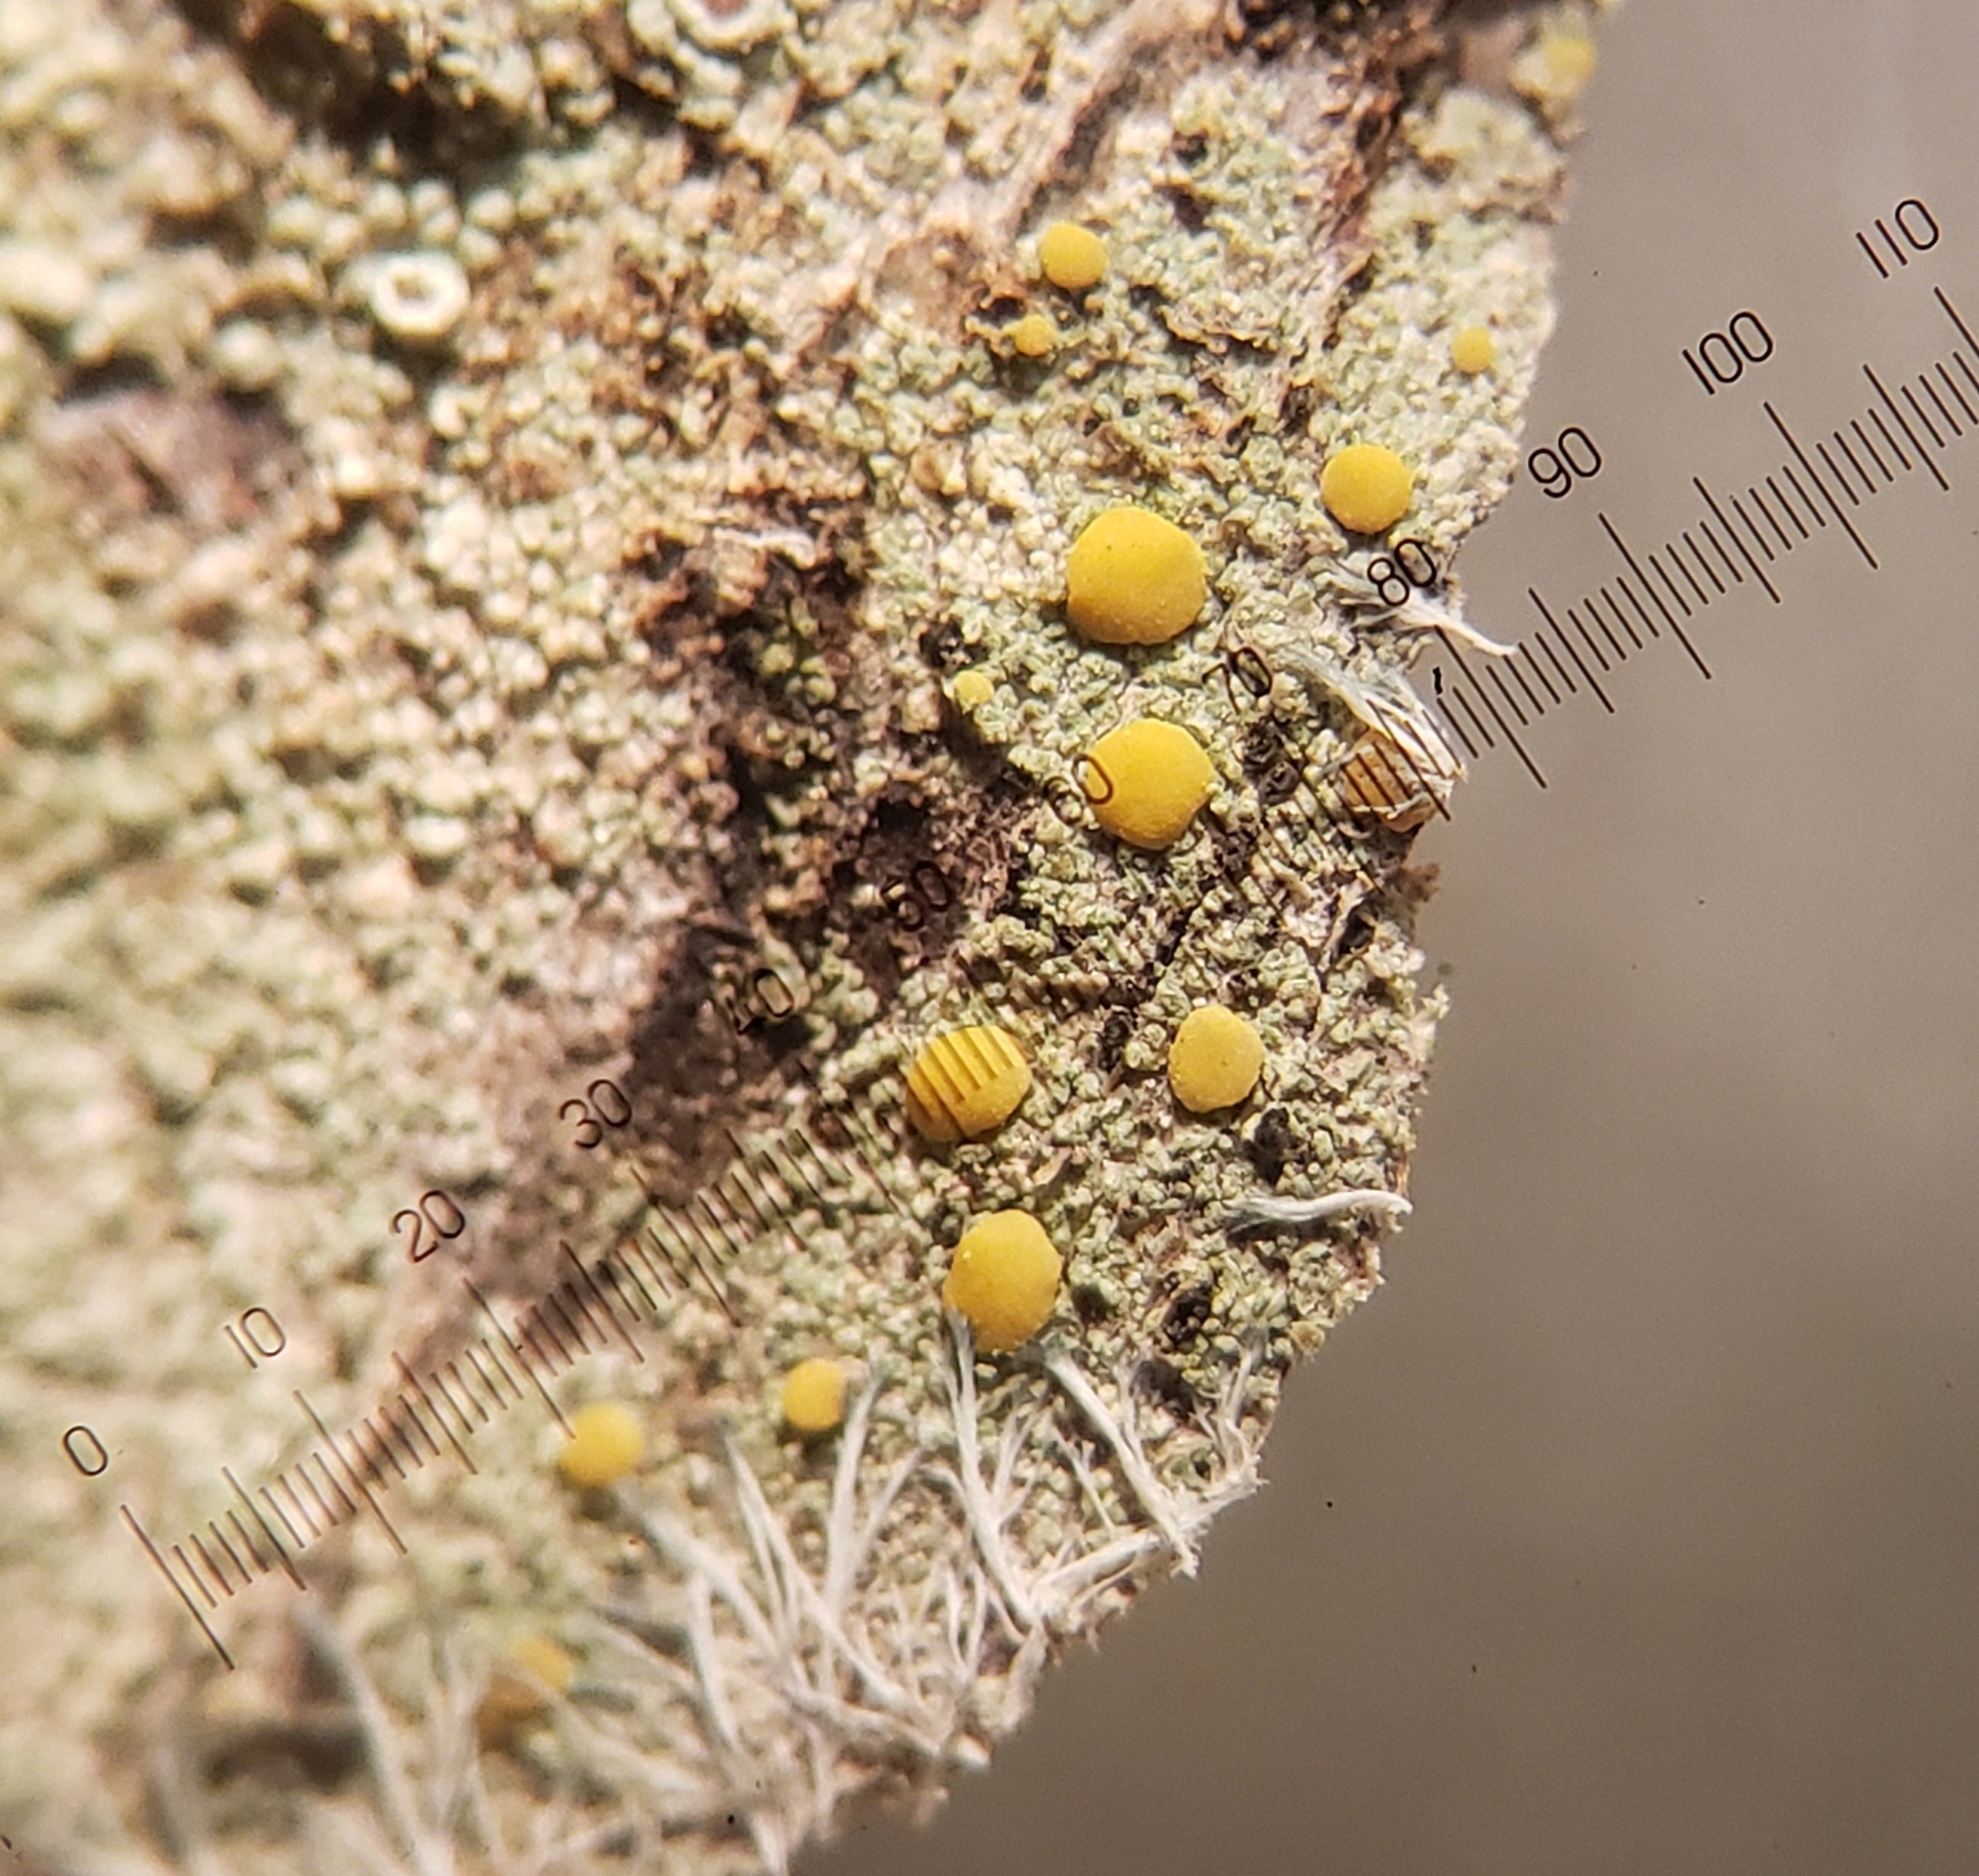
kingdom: Fungi
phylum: Ascomycota
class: Lecanoromycetes
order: Lecanorales
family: Lecanoraceae
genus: Lecanora
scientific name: Lecanora symmicta
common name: Fused rim lichen
